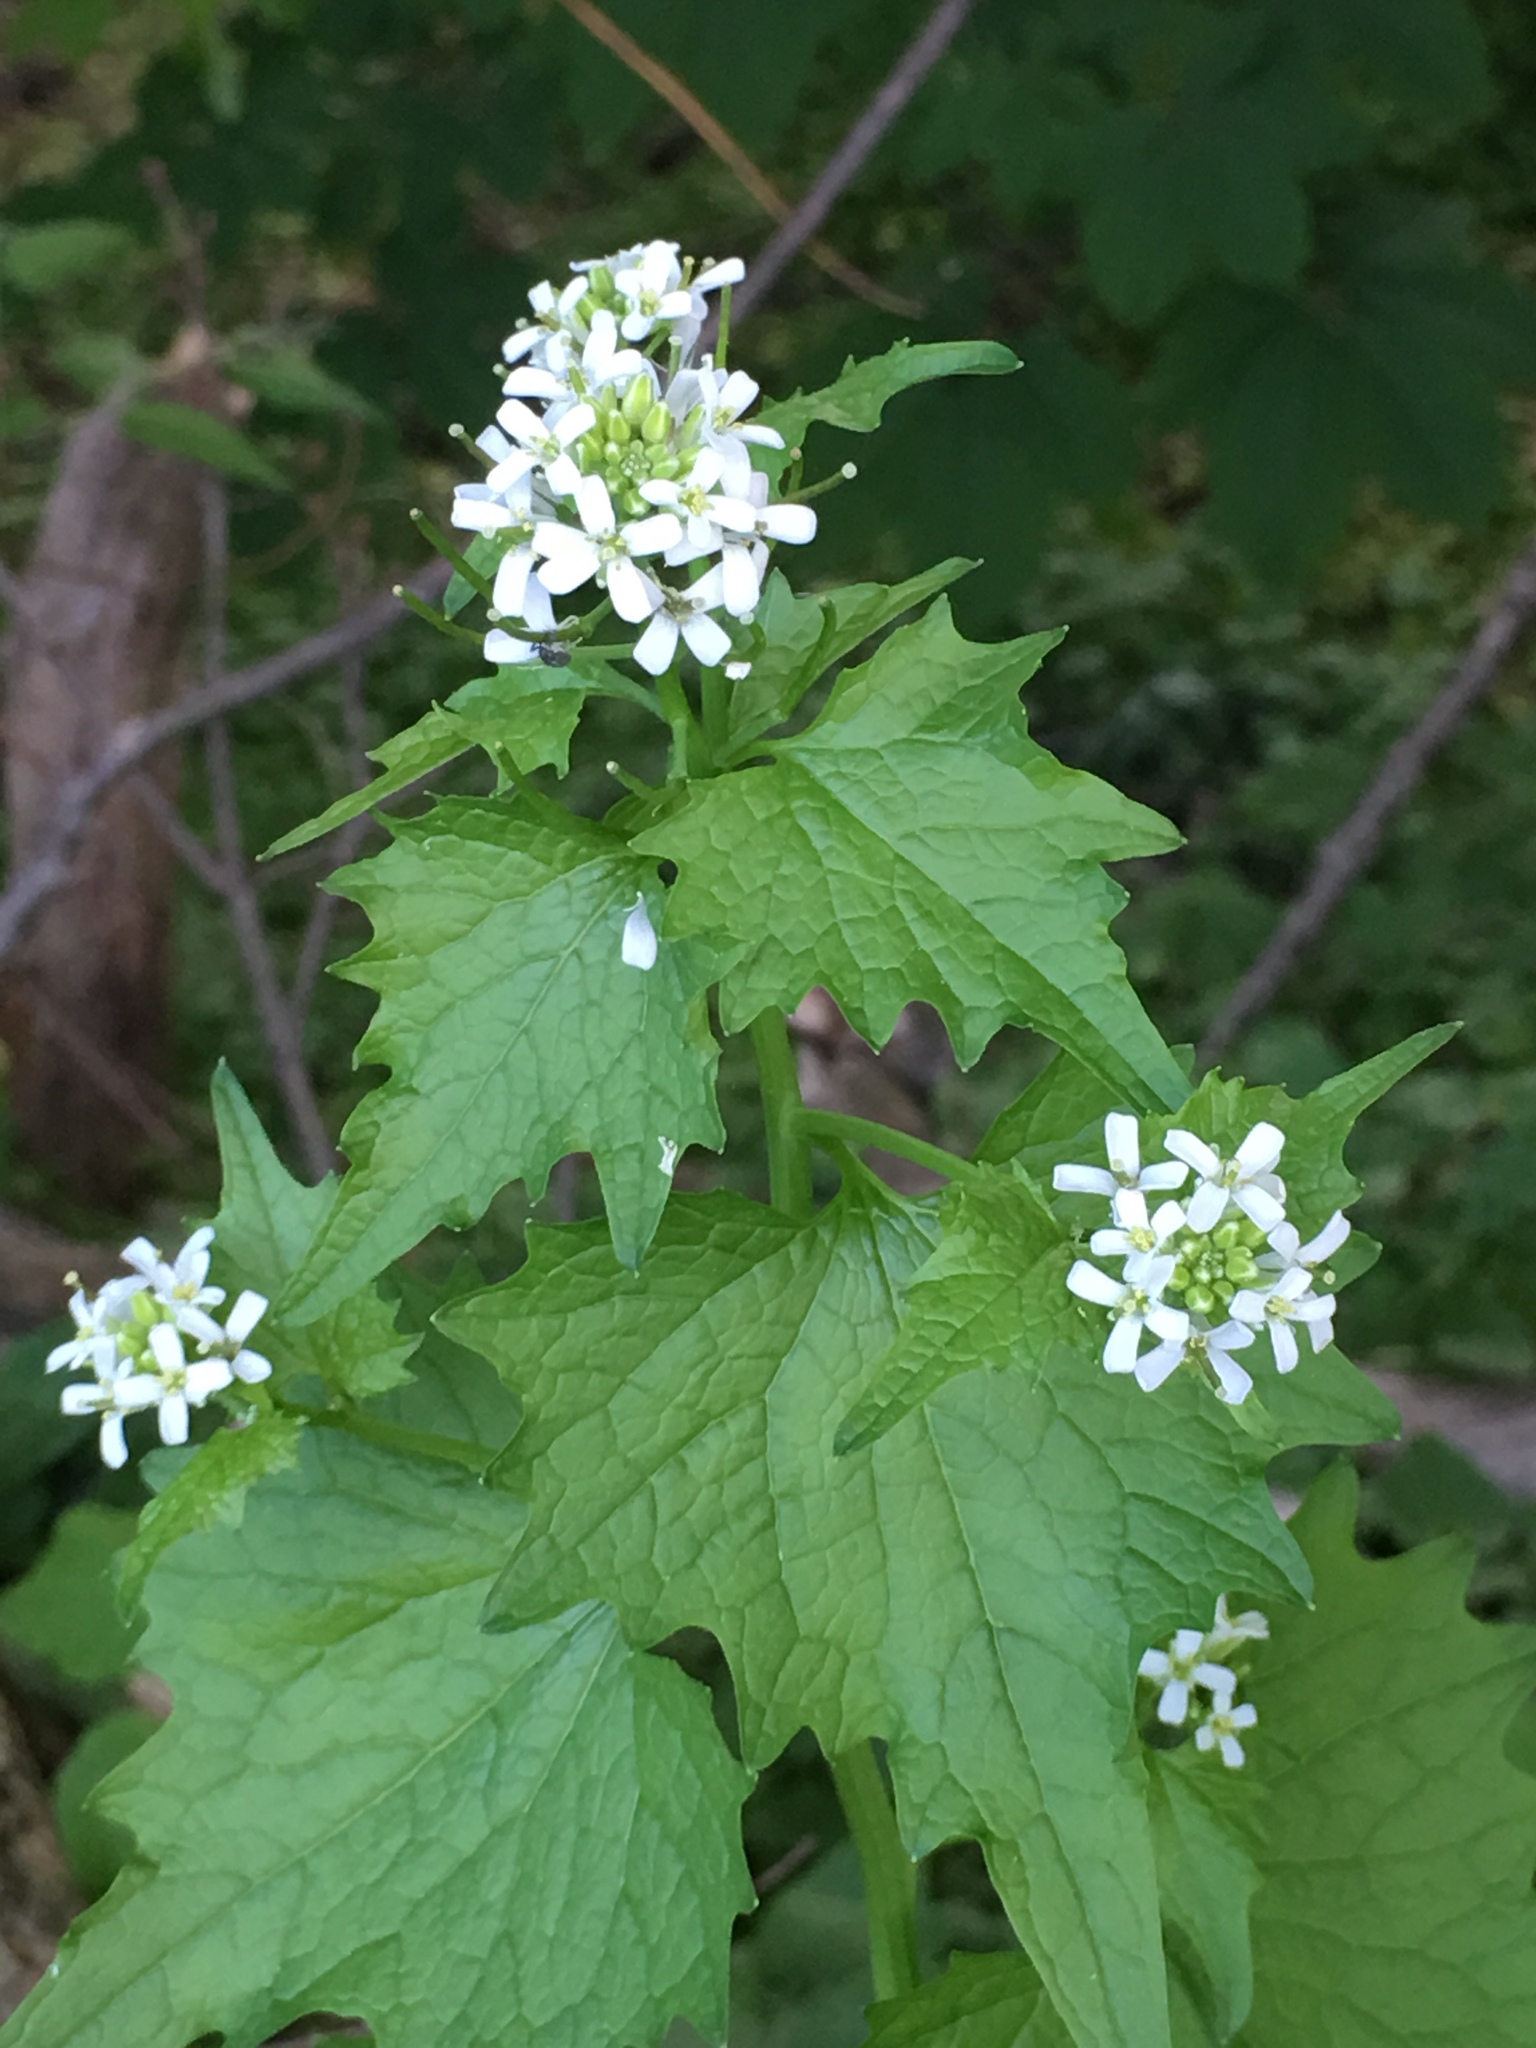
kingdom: Plantae
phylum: Tracheophyta
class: Magnoliopsida
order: Brassicales
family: Brassicaceae
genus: Alliaria
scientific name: Alliaria petiolata
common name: Garlic mustard
